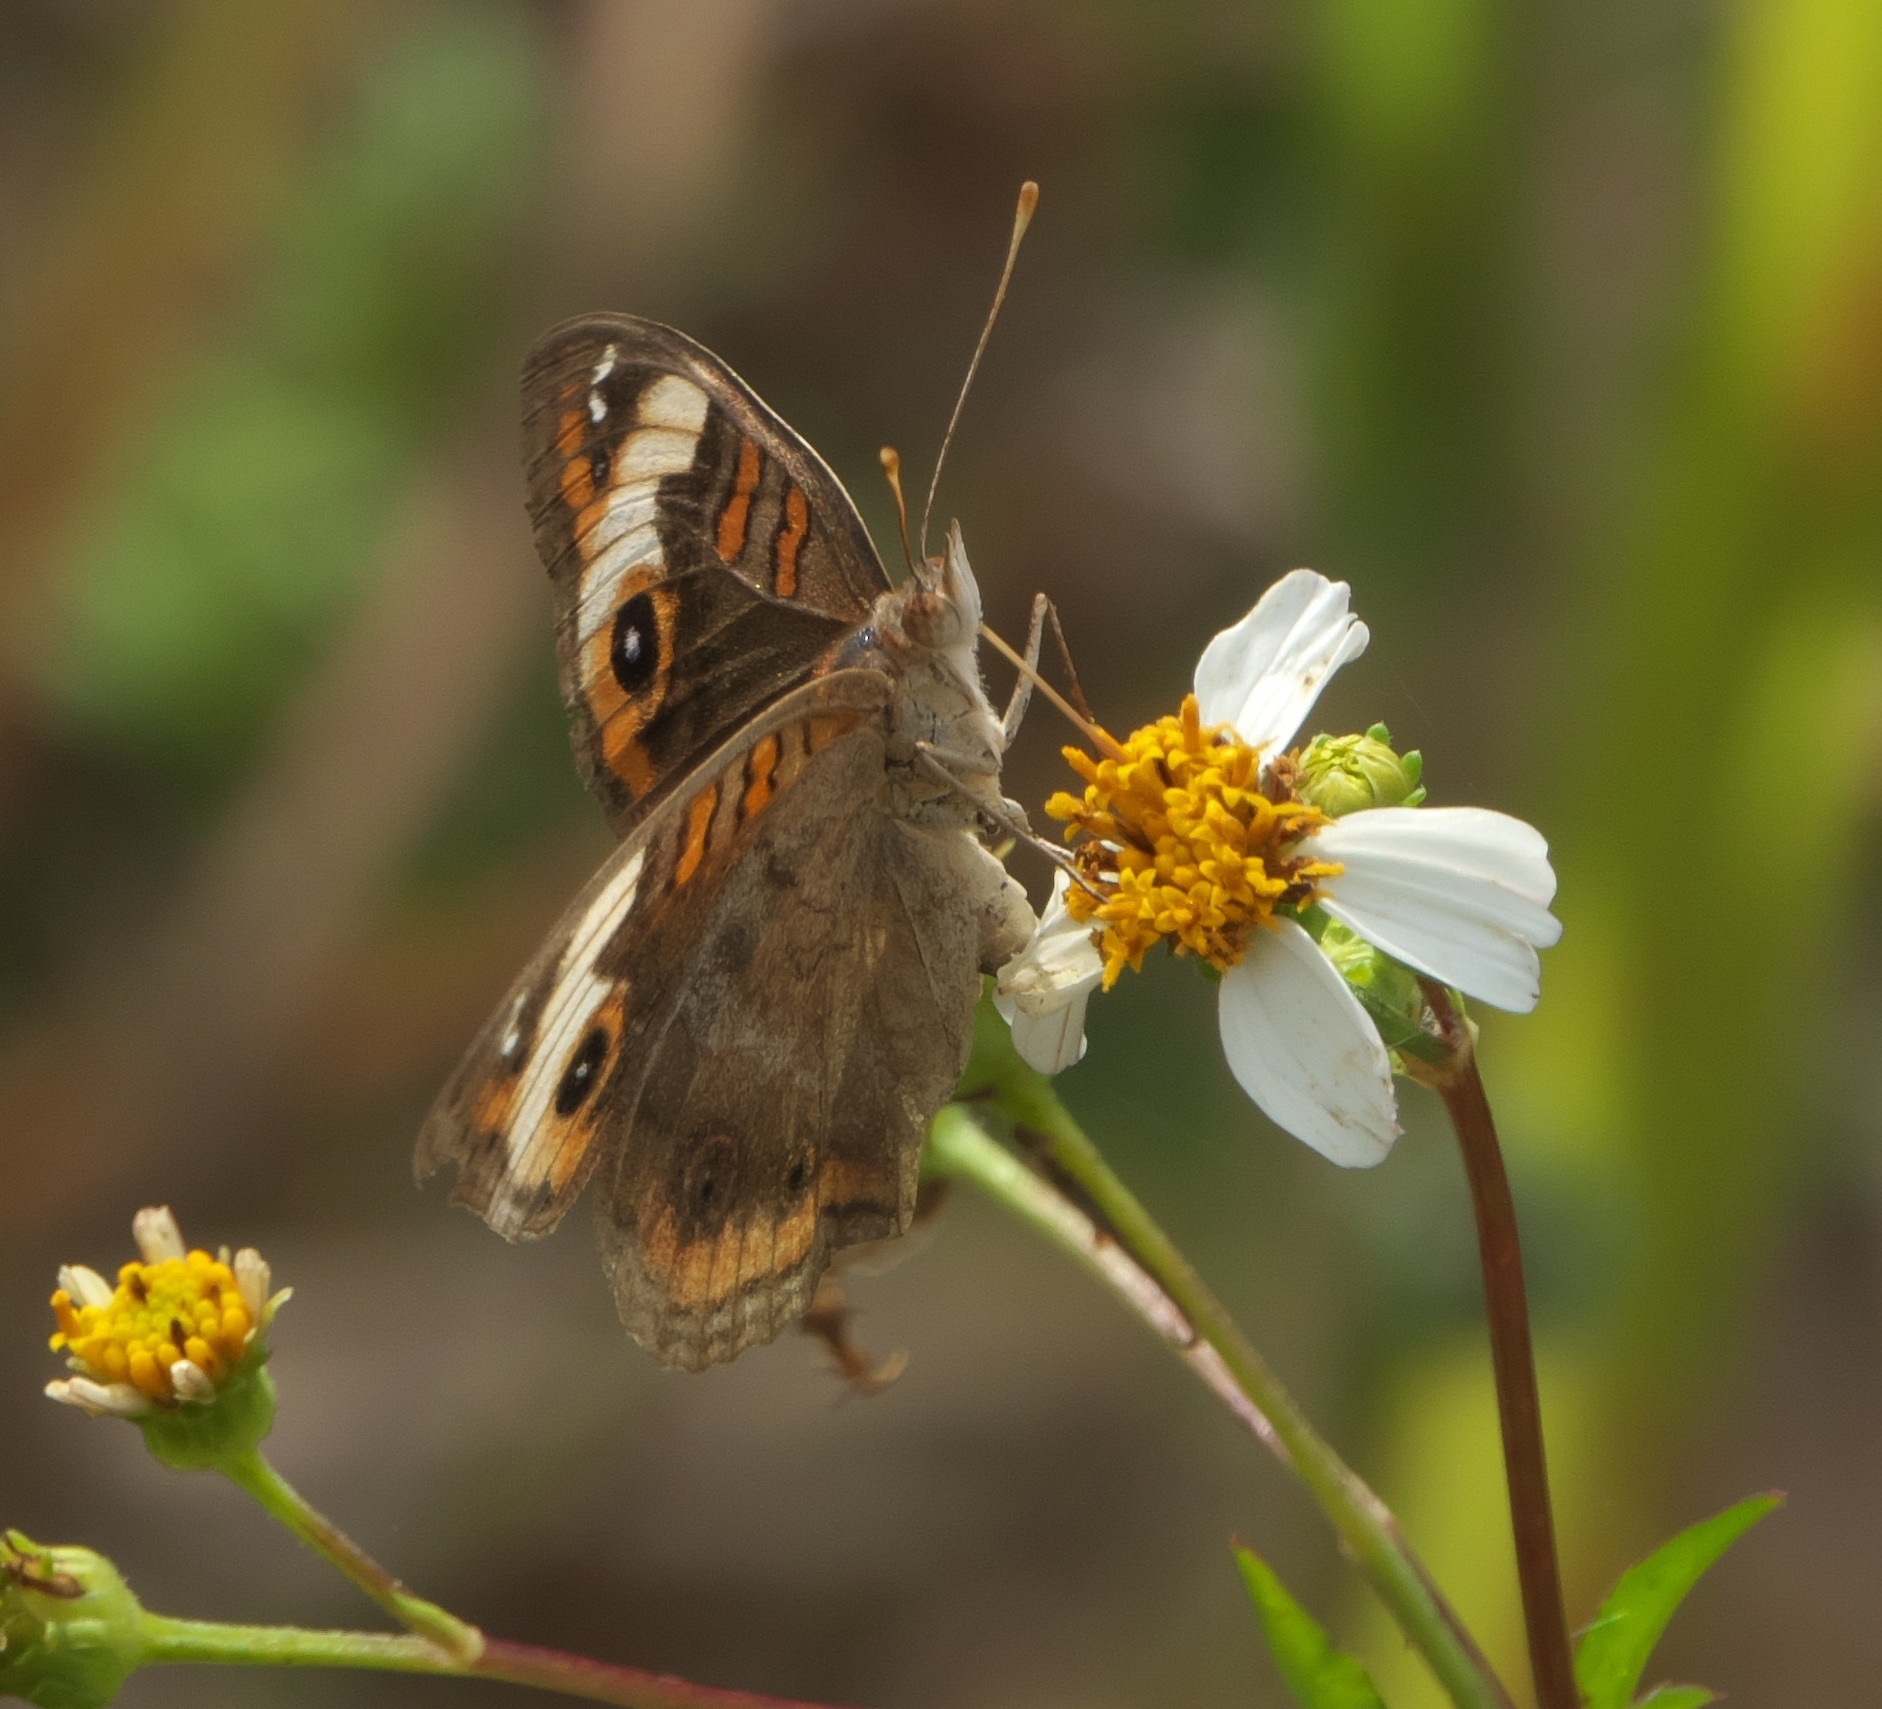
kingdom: Animalia
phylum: Arthropoda
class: Insecta
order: Lepidoptera
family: Nymphalidae
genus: Junonia
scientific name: Junonia coenia
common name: Common buckeye
